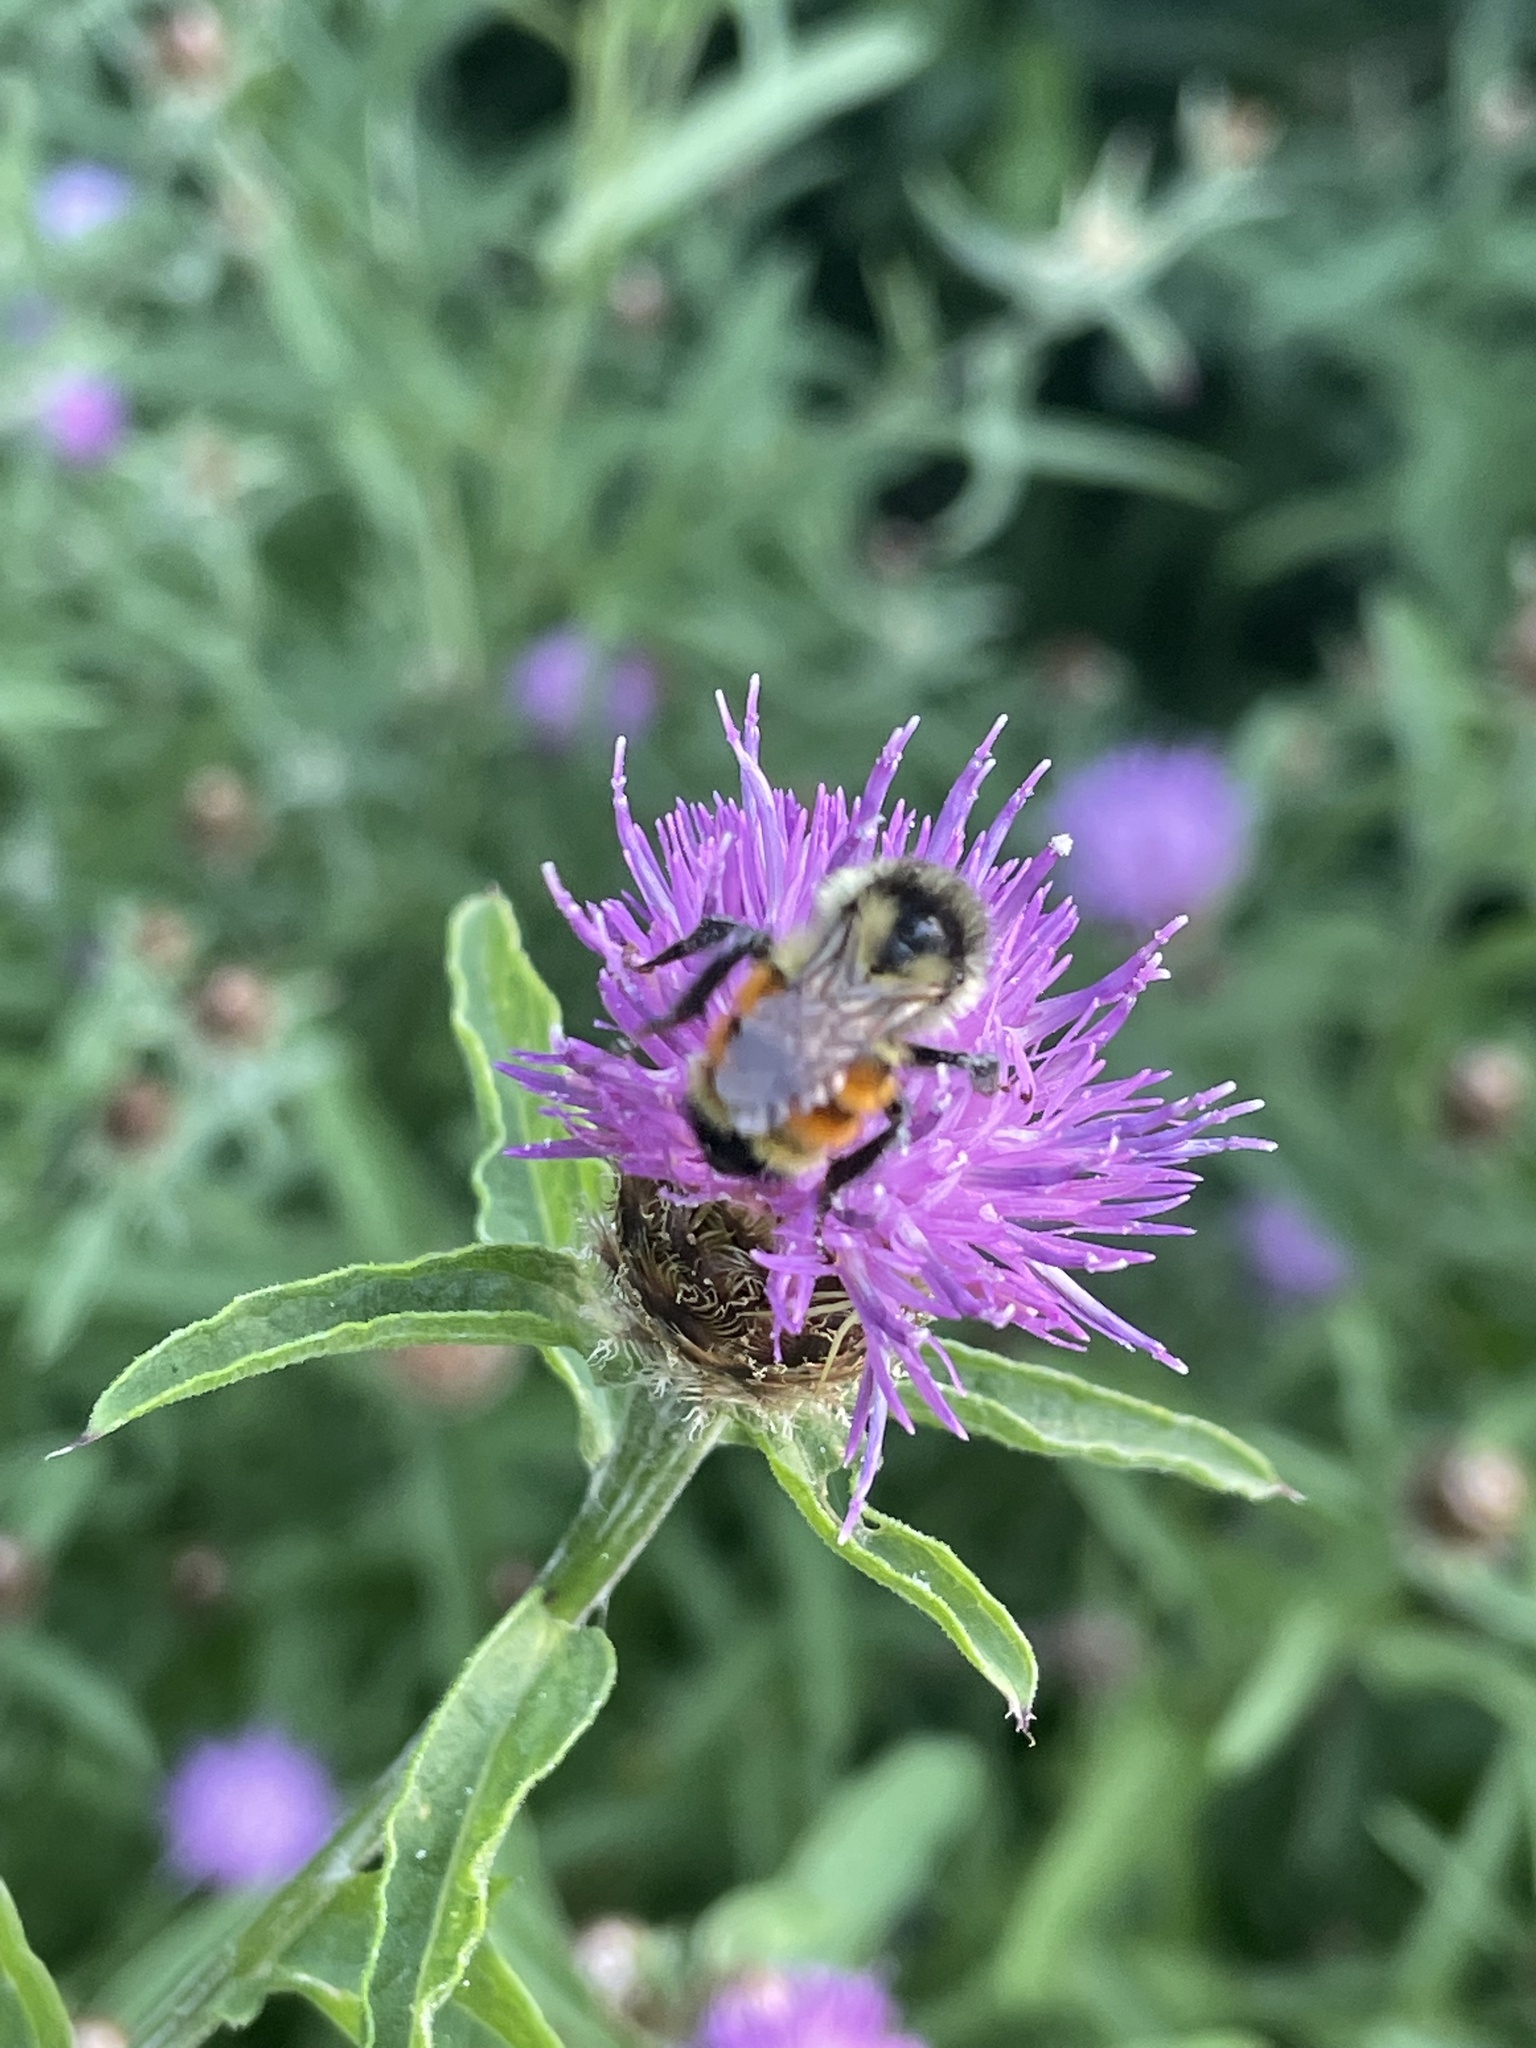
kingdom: Animalia
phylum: Arthropoda
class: Insecta
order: Hymenoptera
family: Apidae
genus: Bombus
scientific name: Bombus ternarius
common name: Tri-colored bumble bee
